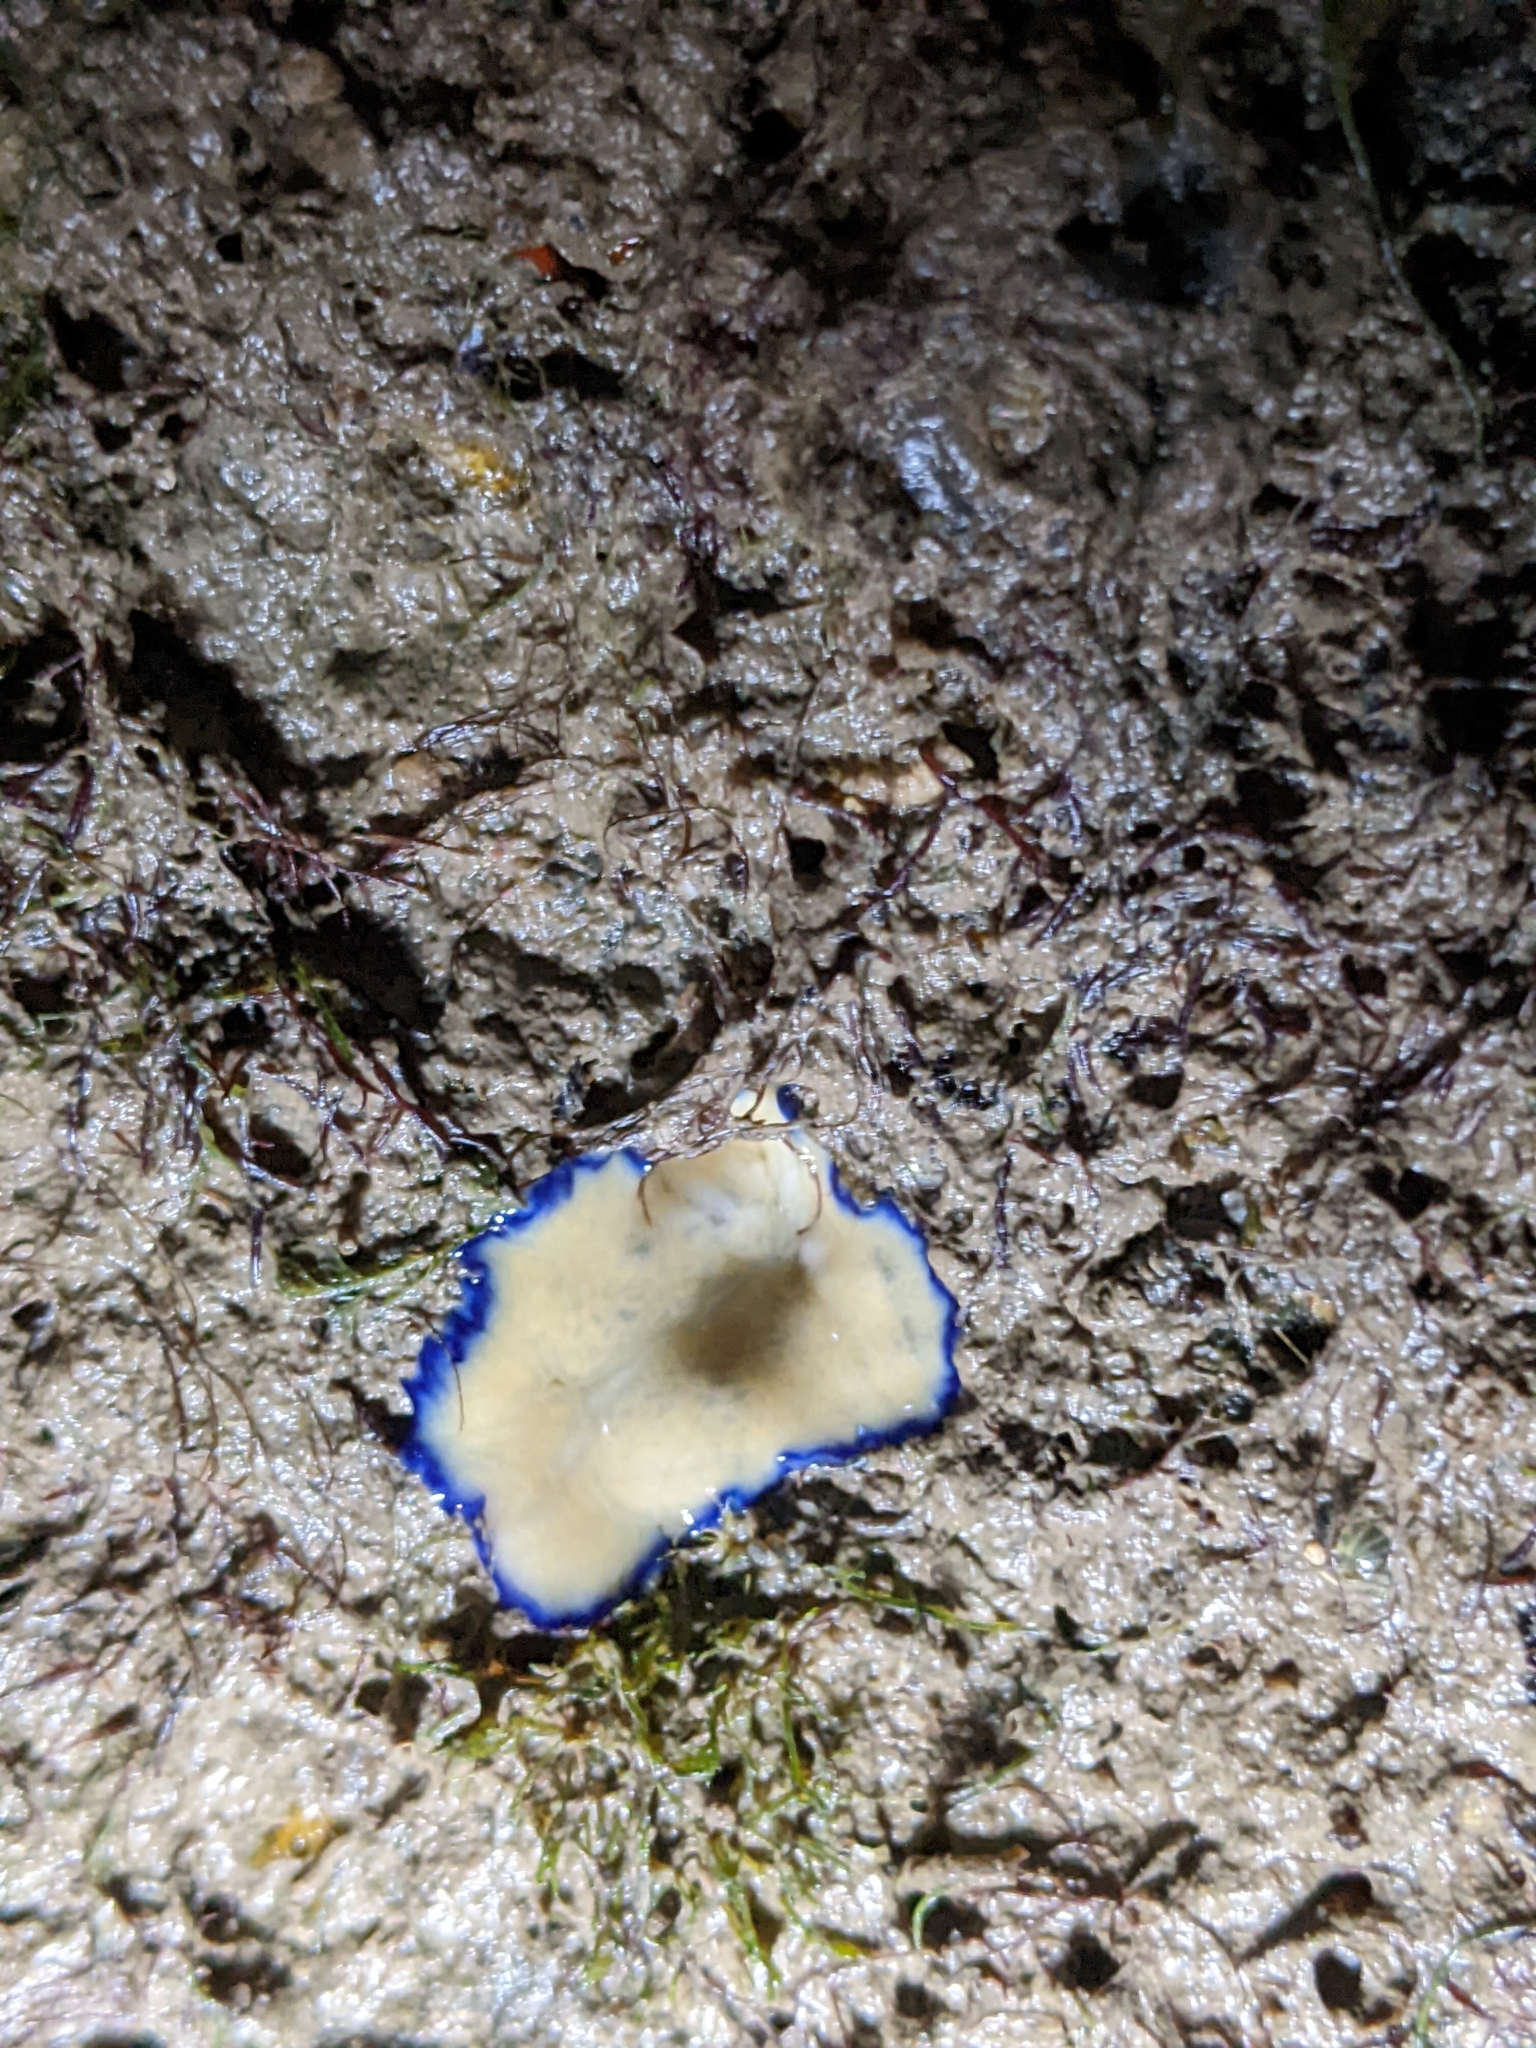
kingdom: Animalia
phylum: Platyhelminthes
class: Turbellaria
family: Pseudocerotidae
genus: Pseudoceros
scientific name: Pseudoceros indicus
